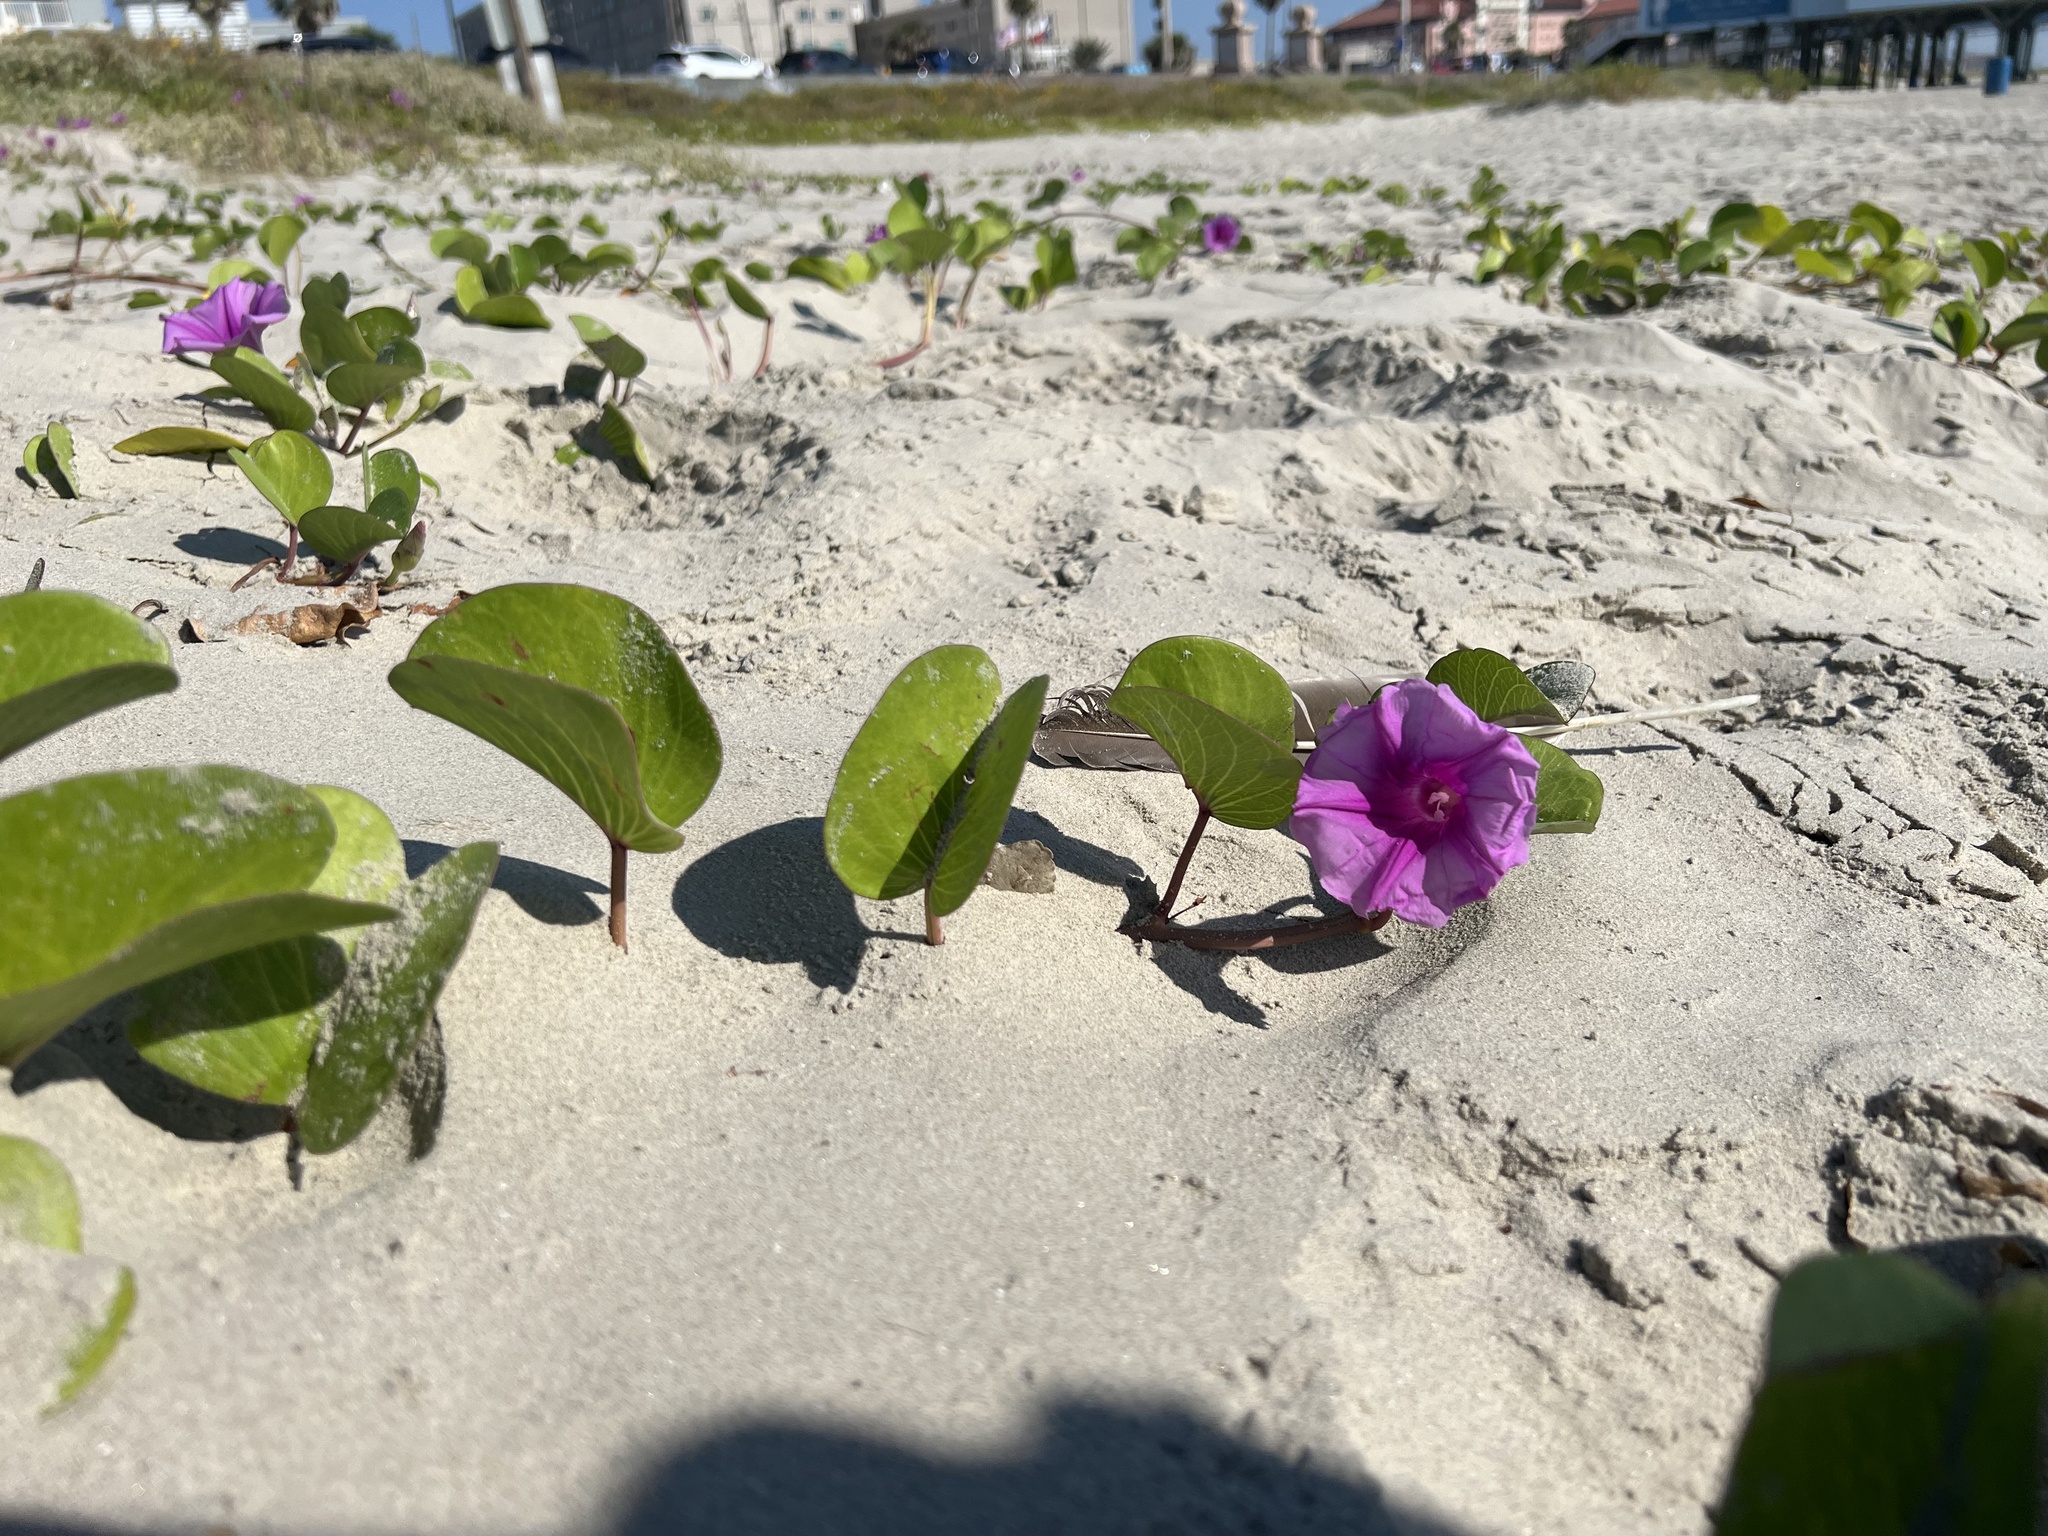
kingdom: Plantae
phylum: Tracheophyta
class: Magnoliopsida
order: Solanales
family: Convolvulaceae
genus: Ipomoea
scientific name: Ipomoea pes-caprae
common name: Beach morning glory
